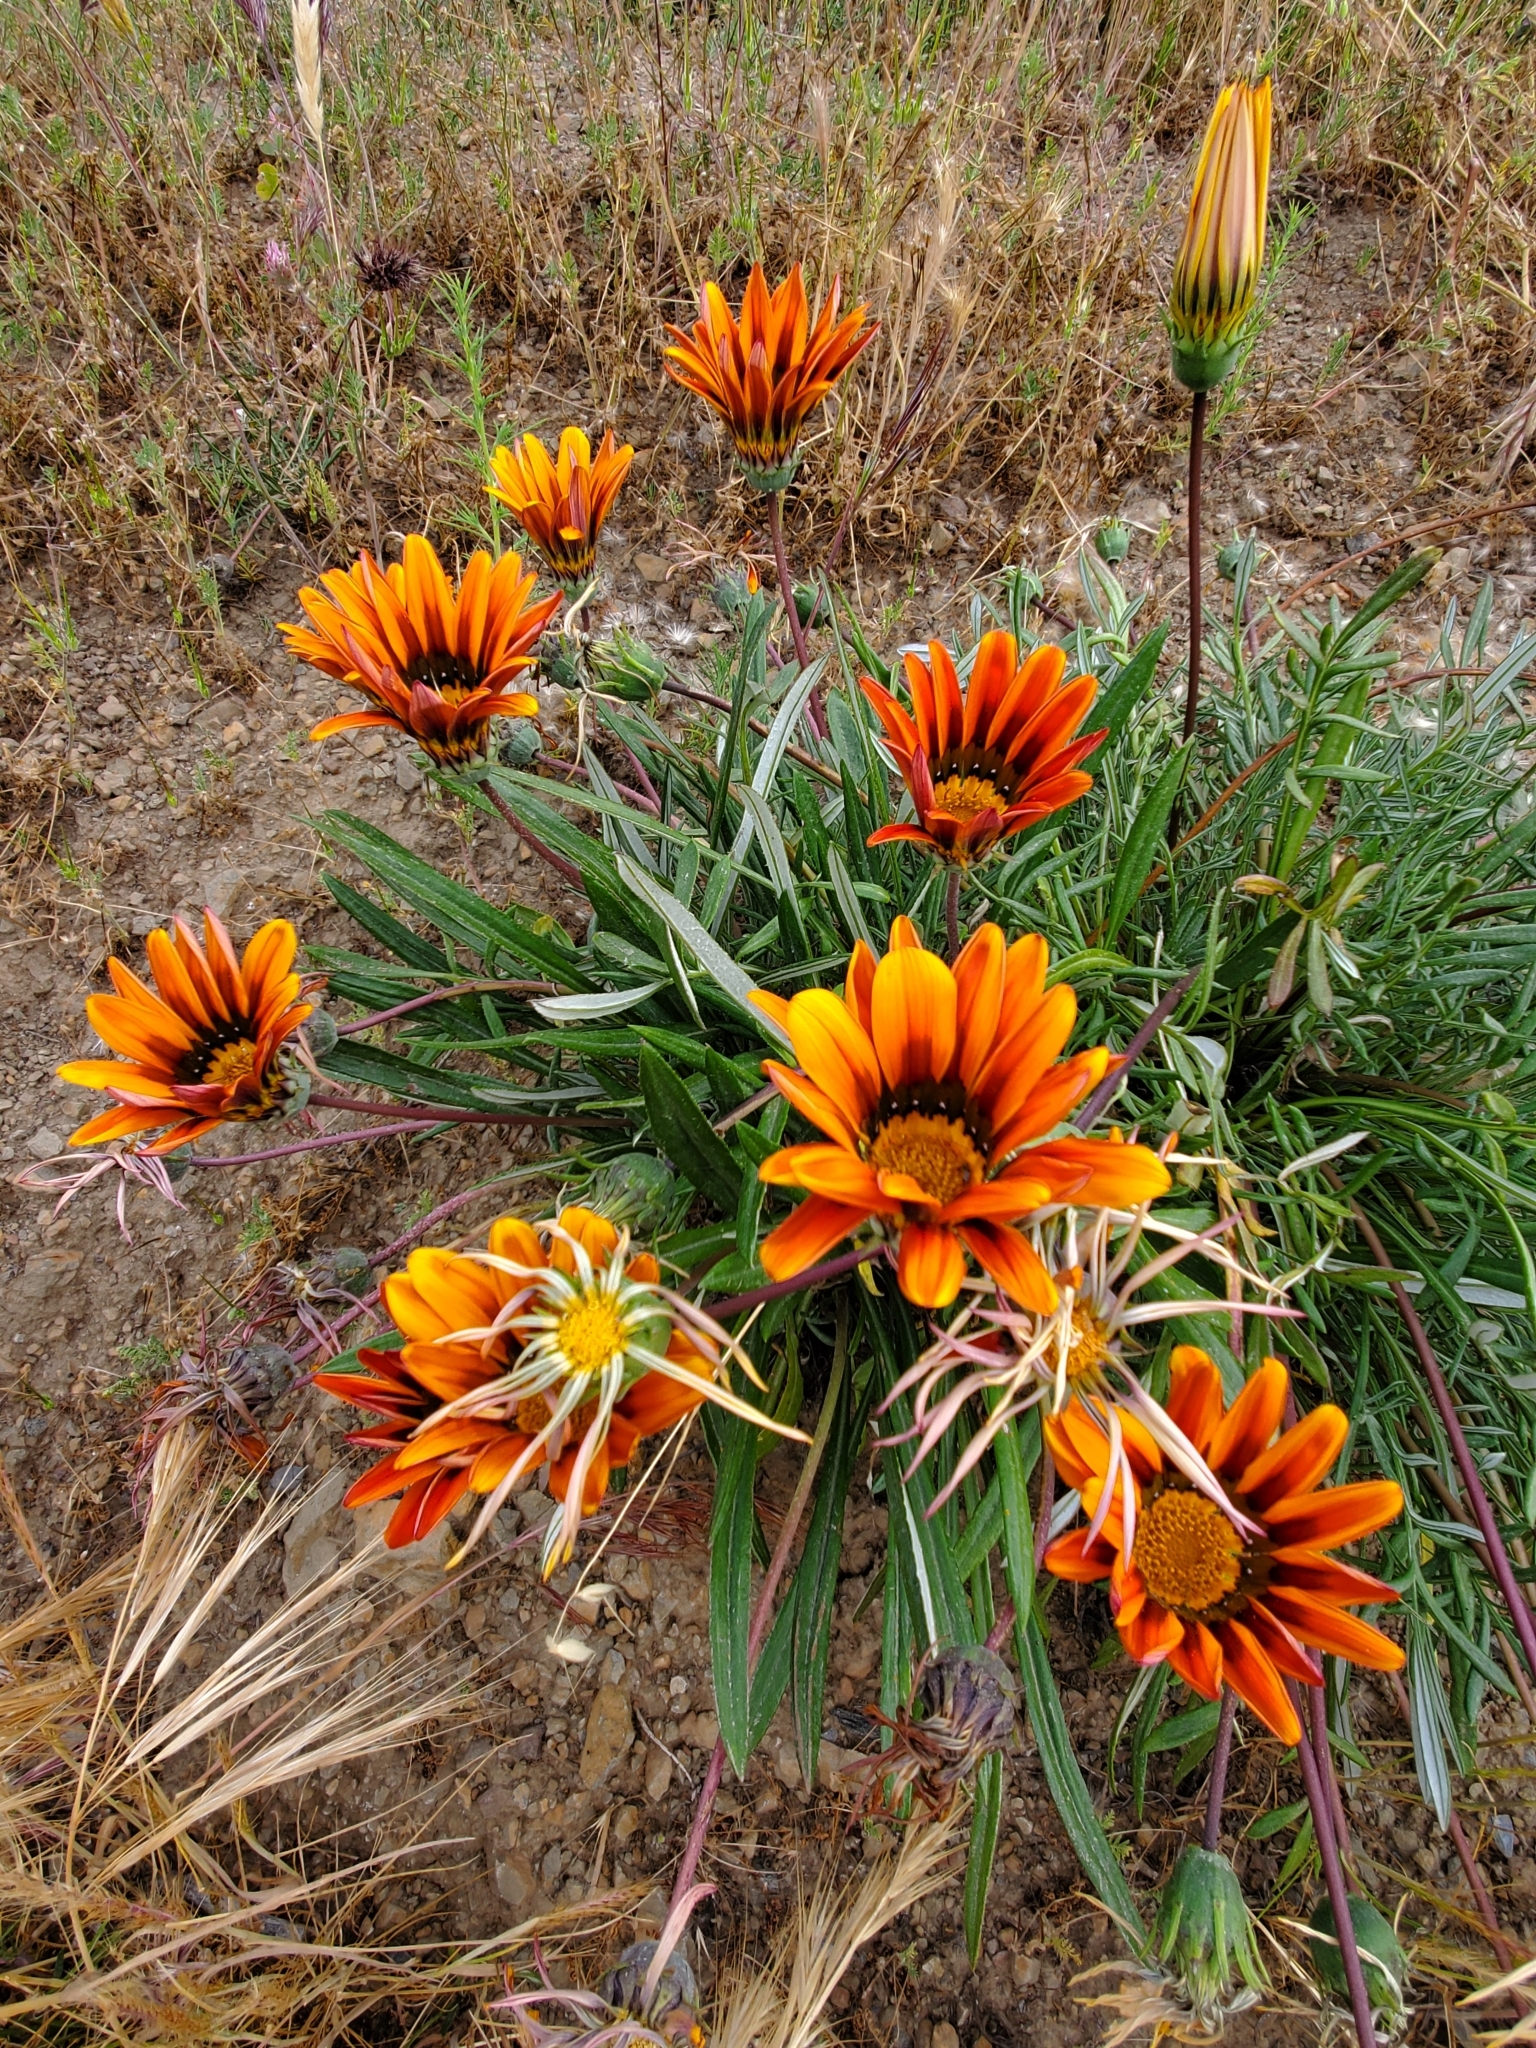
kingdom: Plantae
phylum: Tracheophyta
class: Magnoliopsida
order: Asterales
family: Asteraceae
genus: Gazania
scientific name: Gazania linearis
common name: Treasureflower
